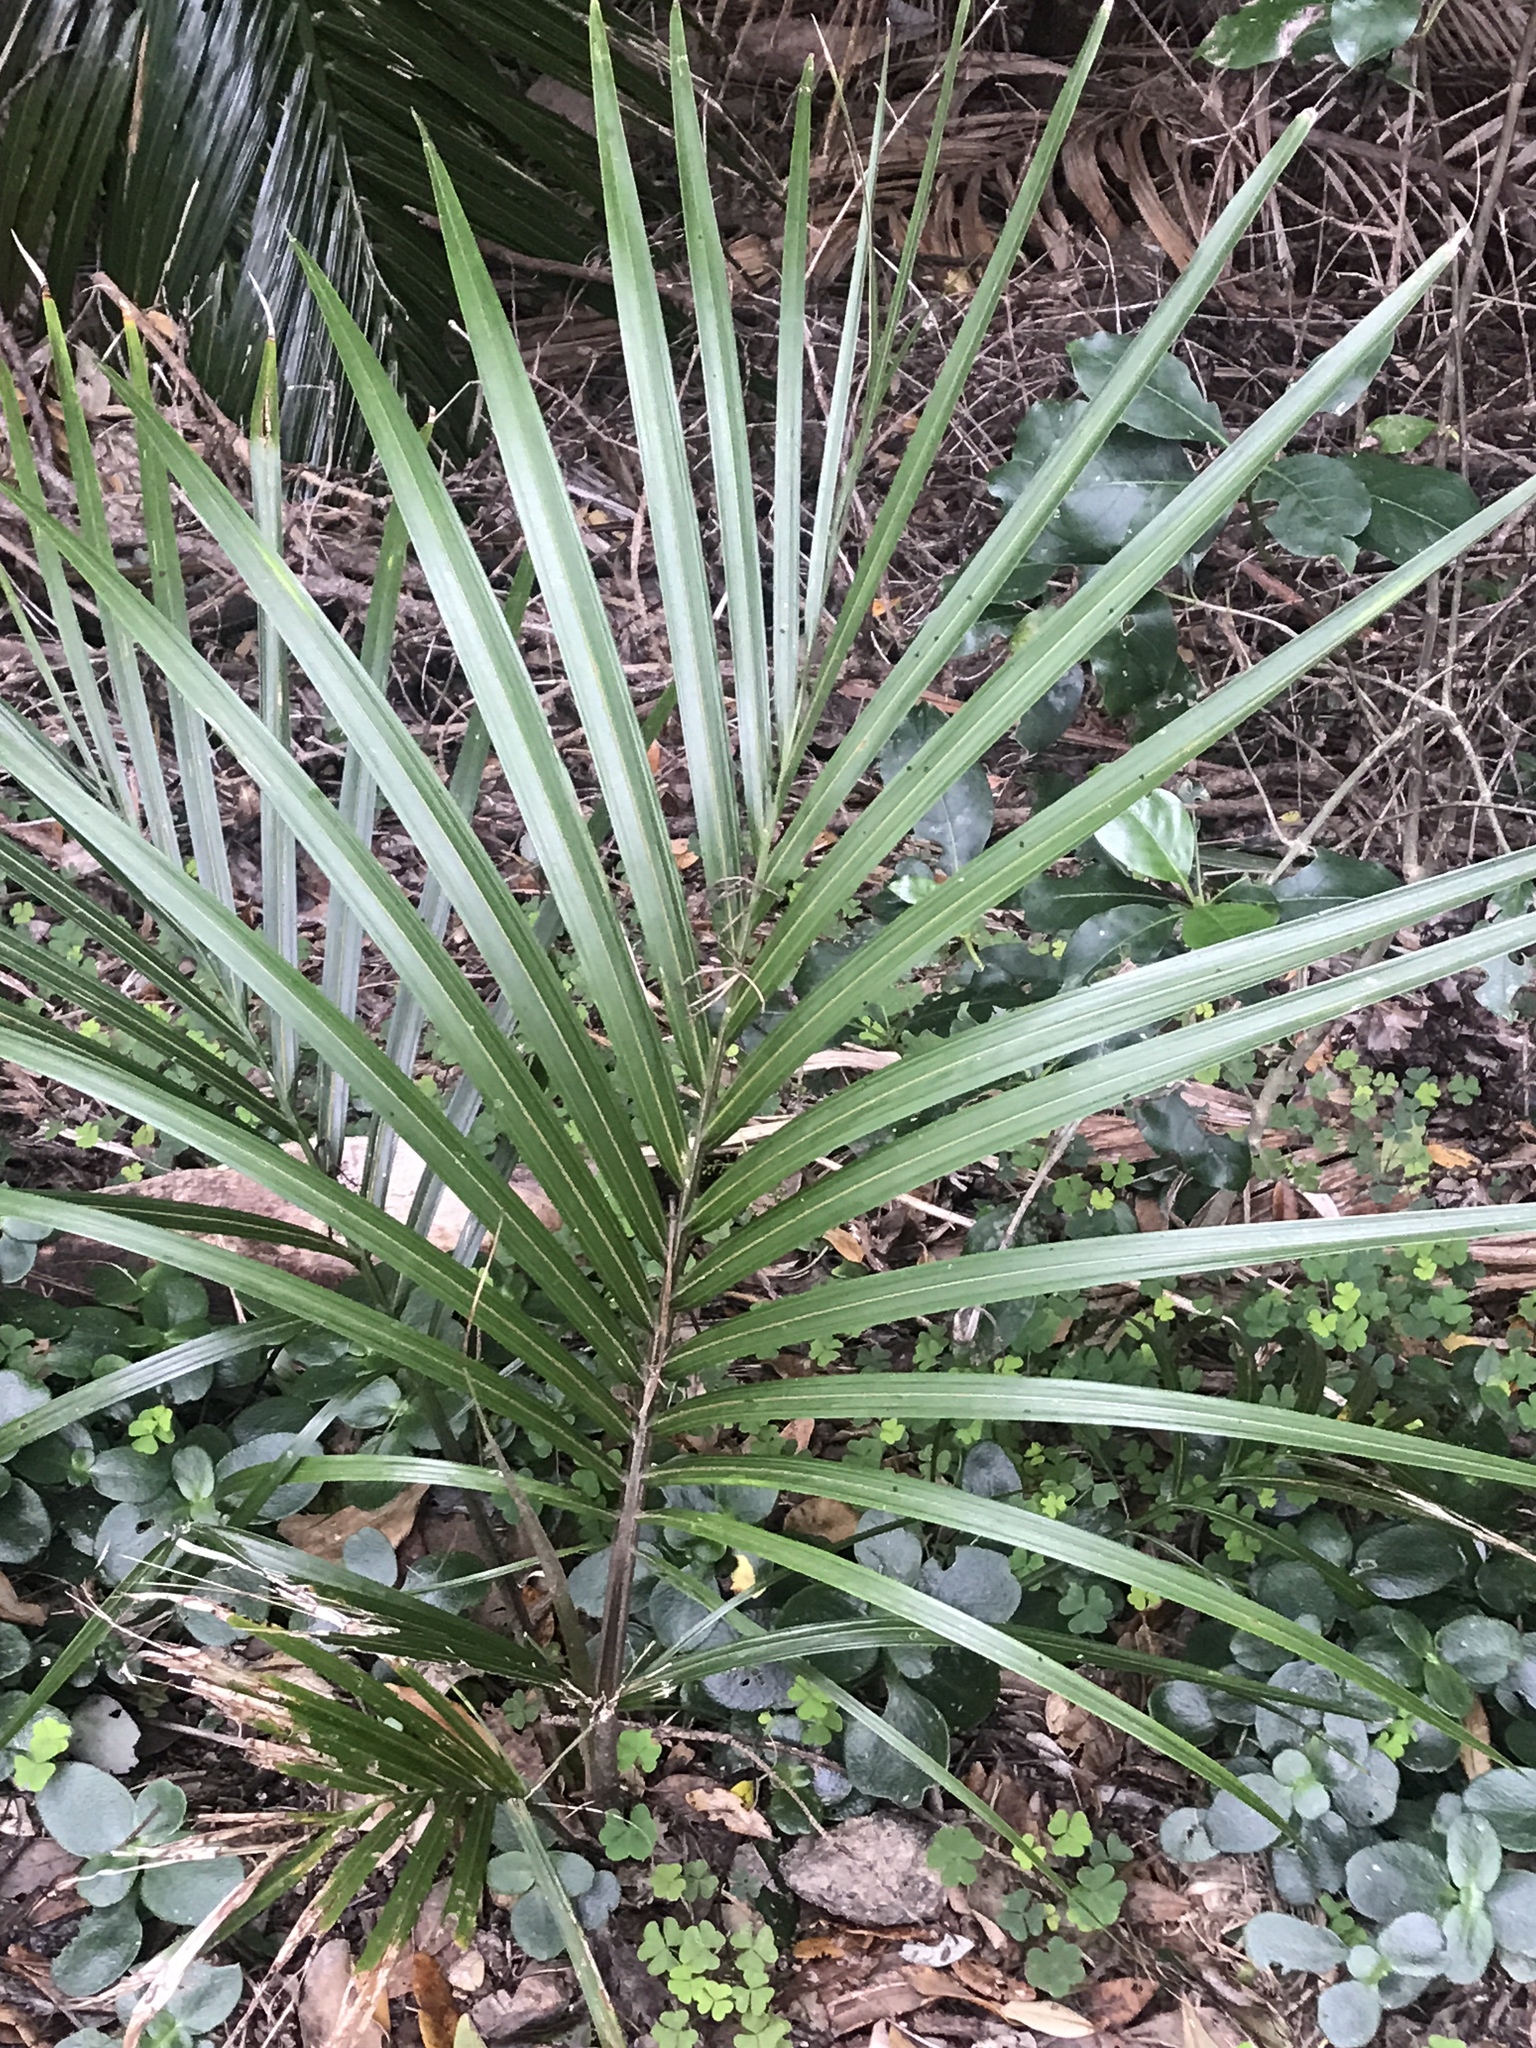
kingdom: Plantae
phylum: Tracheophyta
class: Liliopsida
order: Arecales
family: Arecaceae
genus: Rhopalostylis
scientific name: Rhopalostylis sapida
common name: Feather-duster palm
